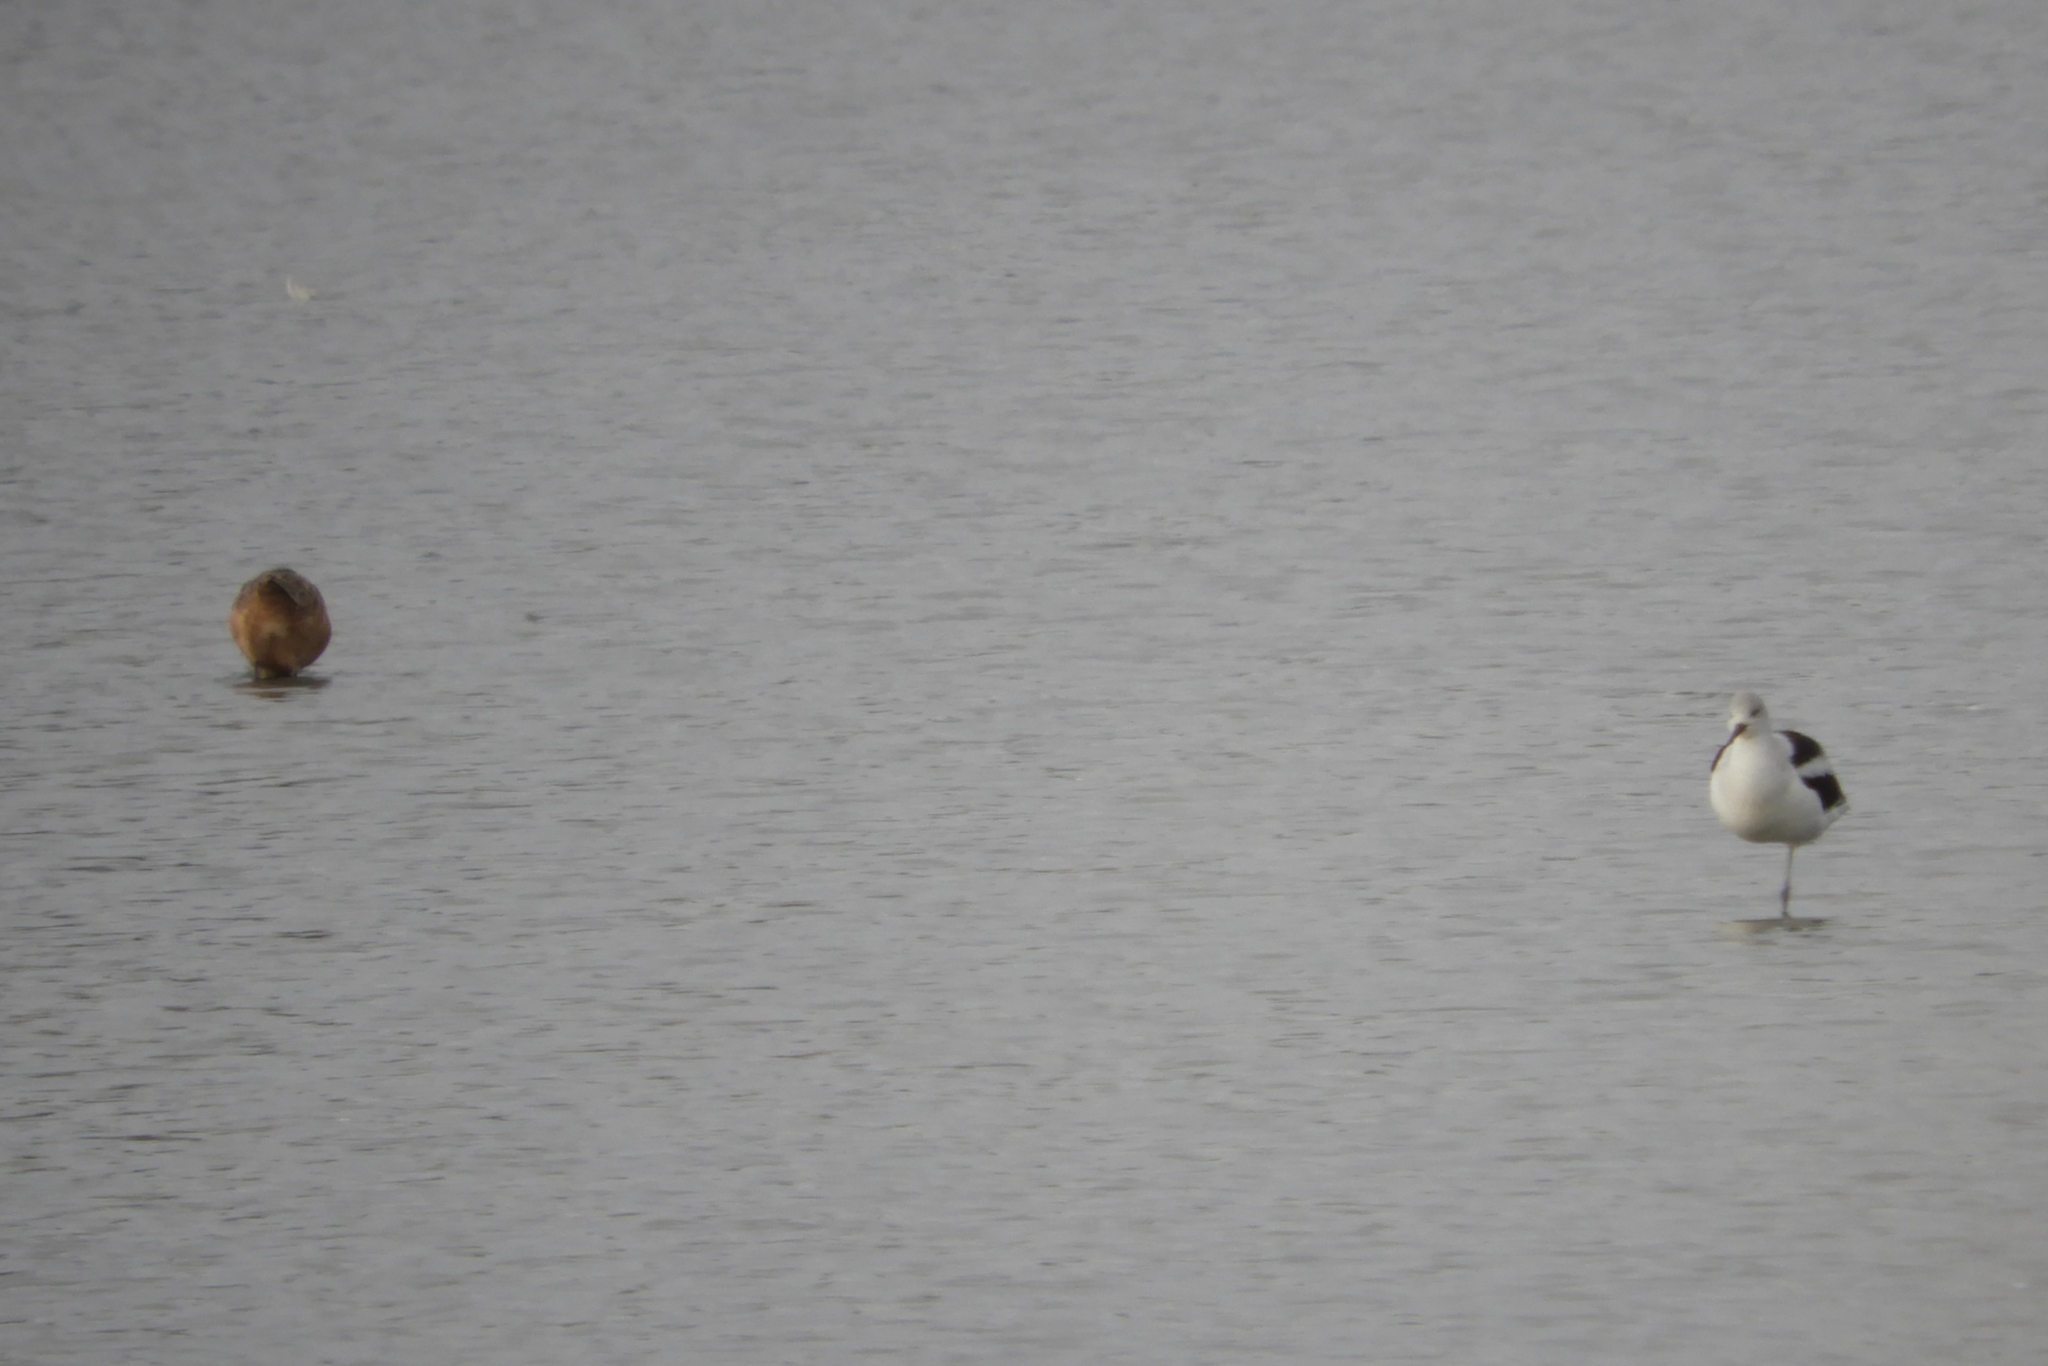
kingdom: Animalia
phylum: Chordata
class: Aves
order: Charadriiformes
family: Scolopacidae
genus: Limosa
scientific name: Limosa fedoa
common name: Marbled godwit
